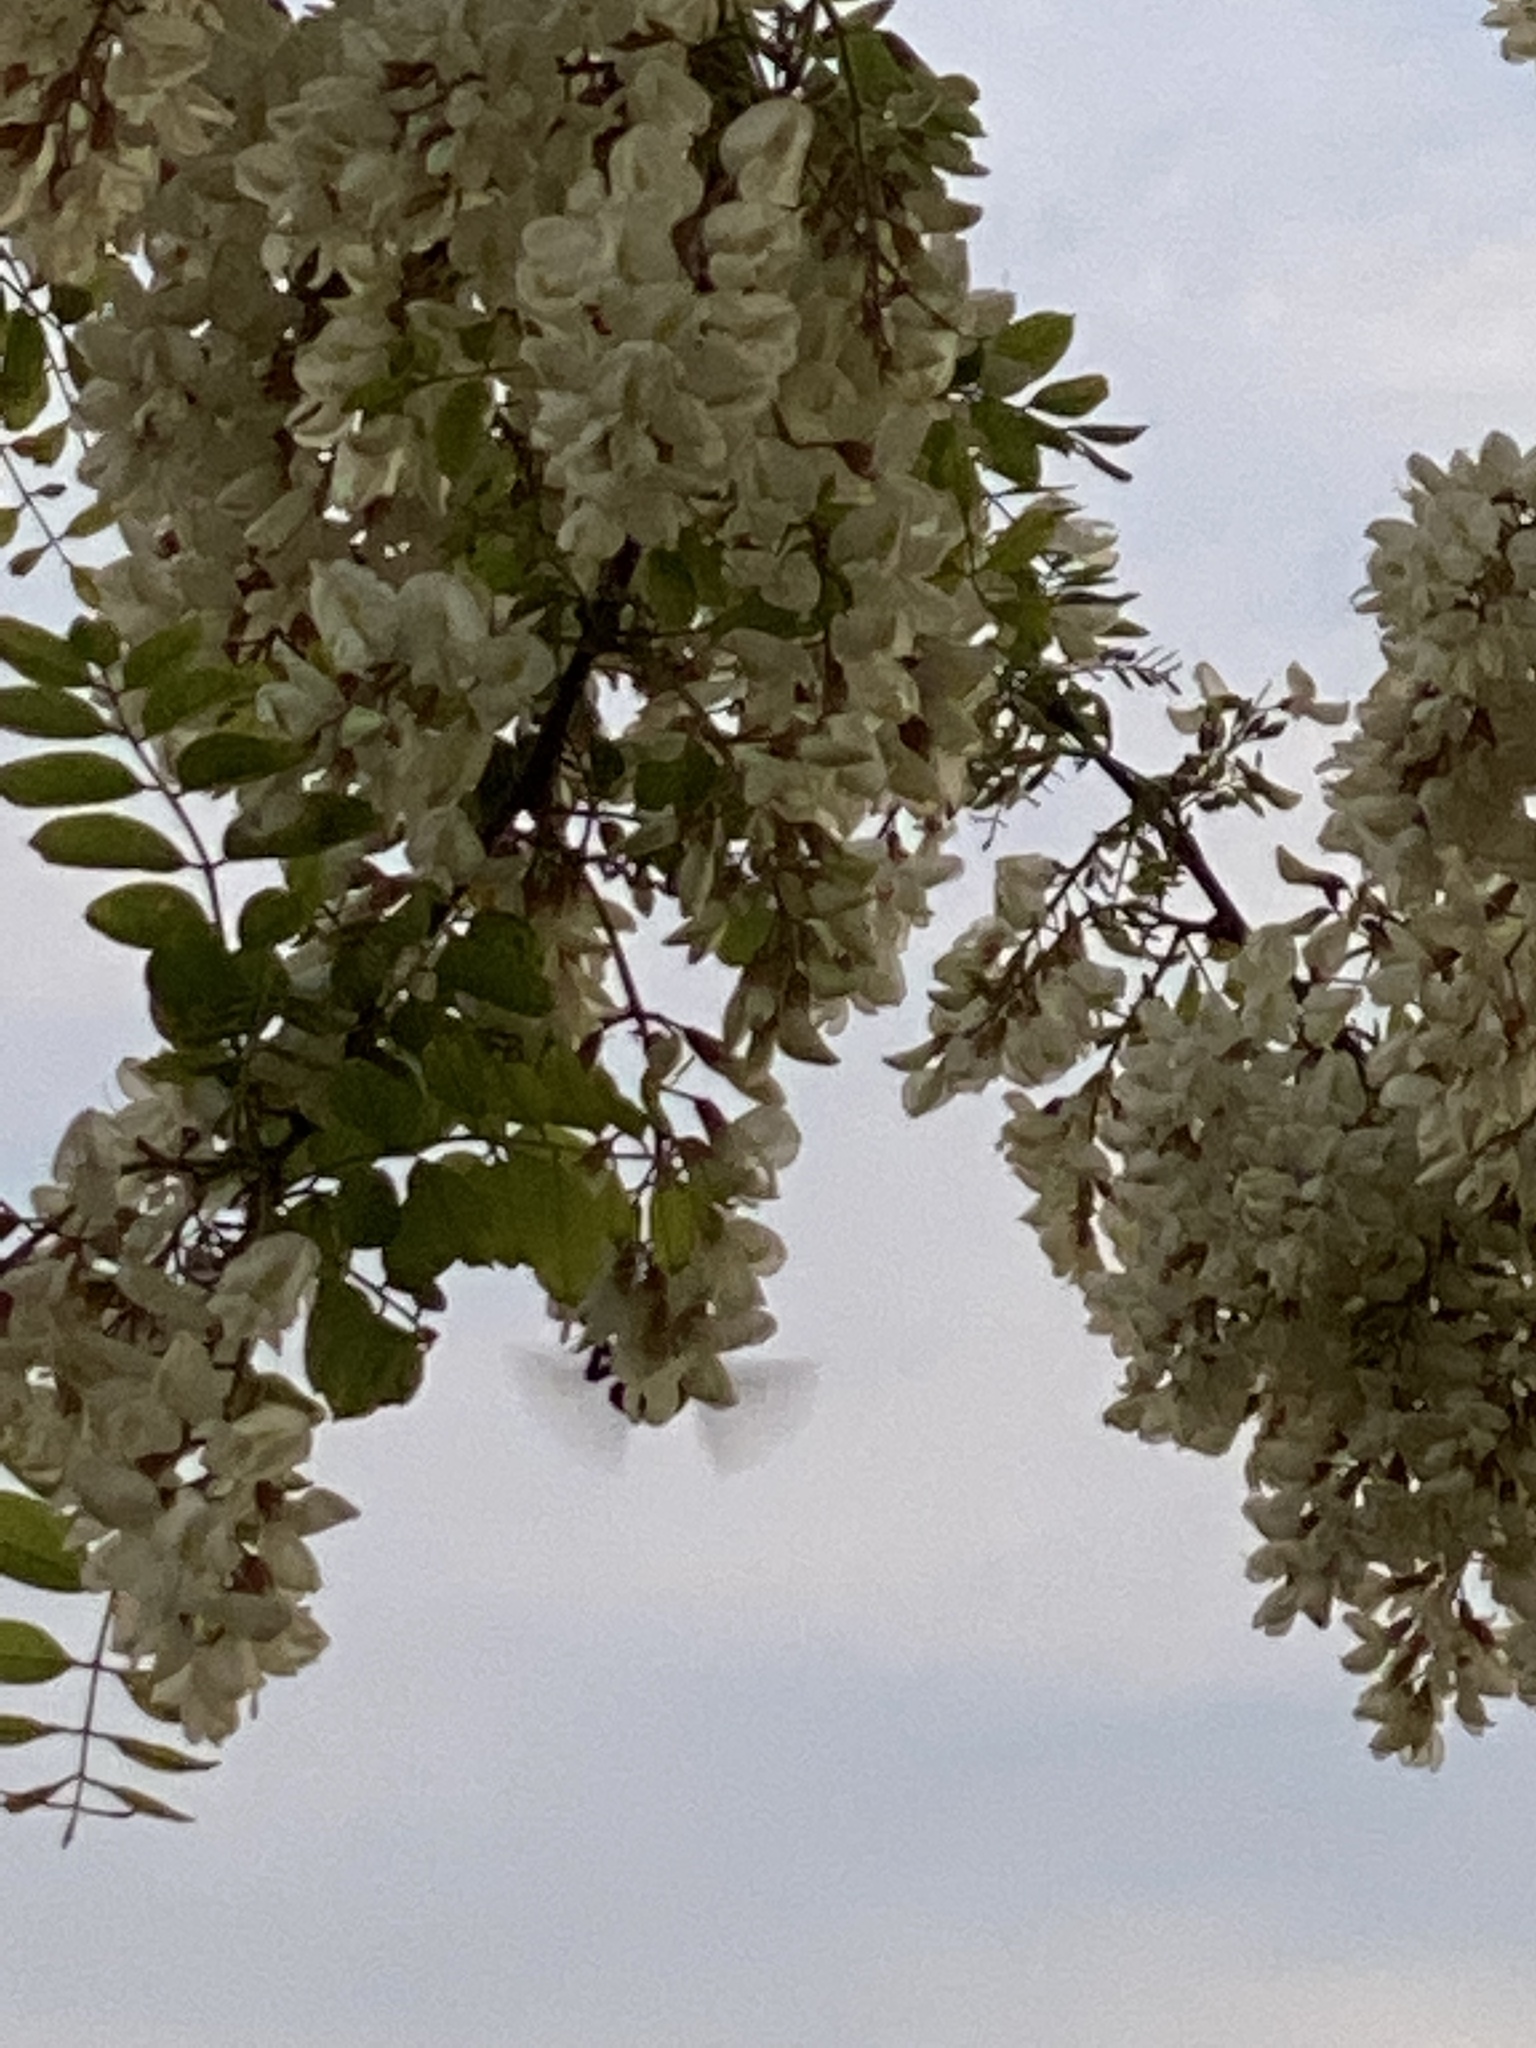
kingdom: Animalia
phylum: Arthropoda
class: Insecta
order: Hymenoptera
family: Apidae
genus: Bombus
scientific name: Bombus sonorus
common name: Sonoran bumble bee
